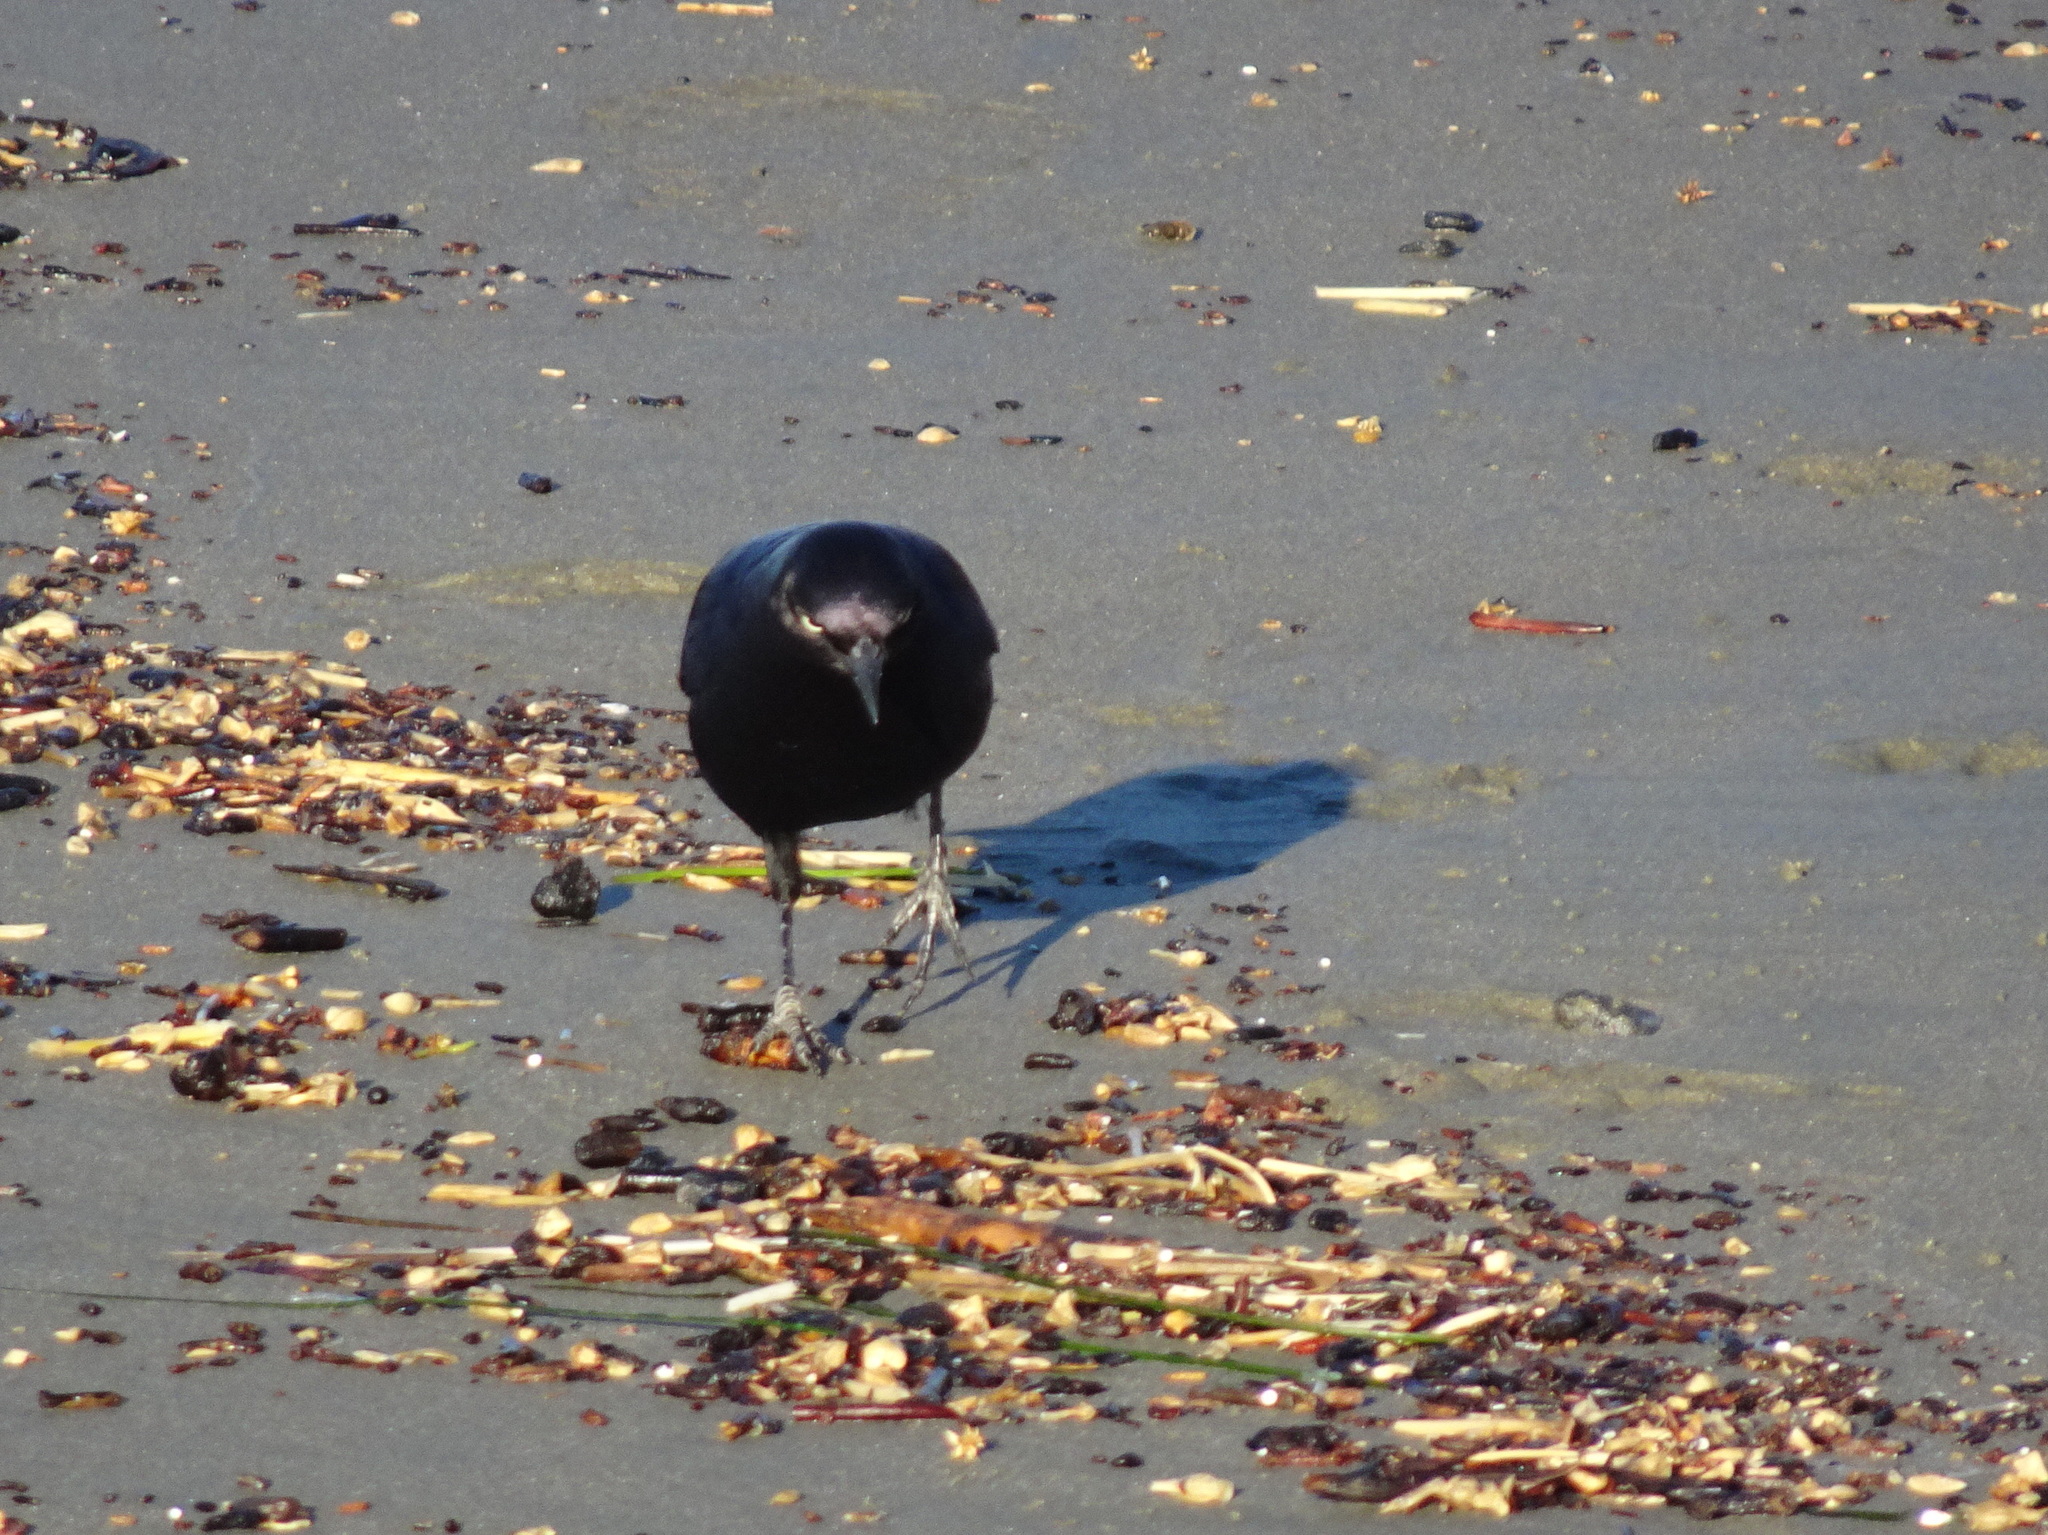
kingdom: Animalia
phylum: Chordata
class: Aves
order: Passeriformes
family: Icteridae
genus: Euphagus
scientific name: Euphagus cyanocephalus
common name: Brewer's blackbird
